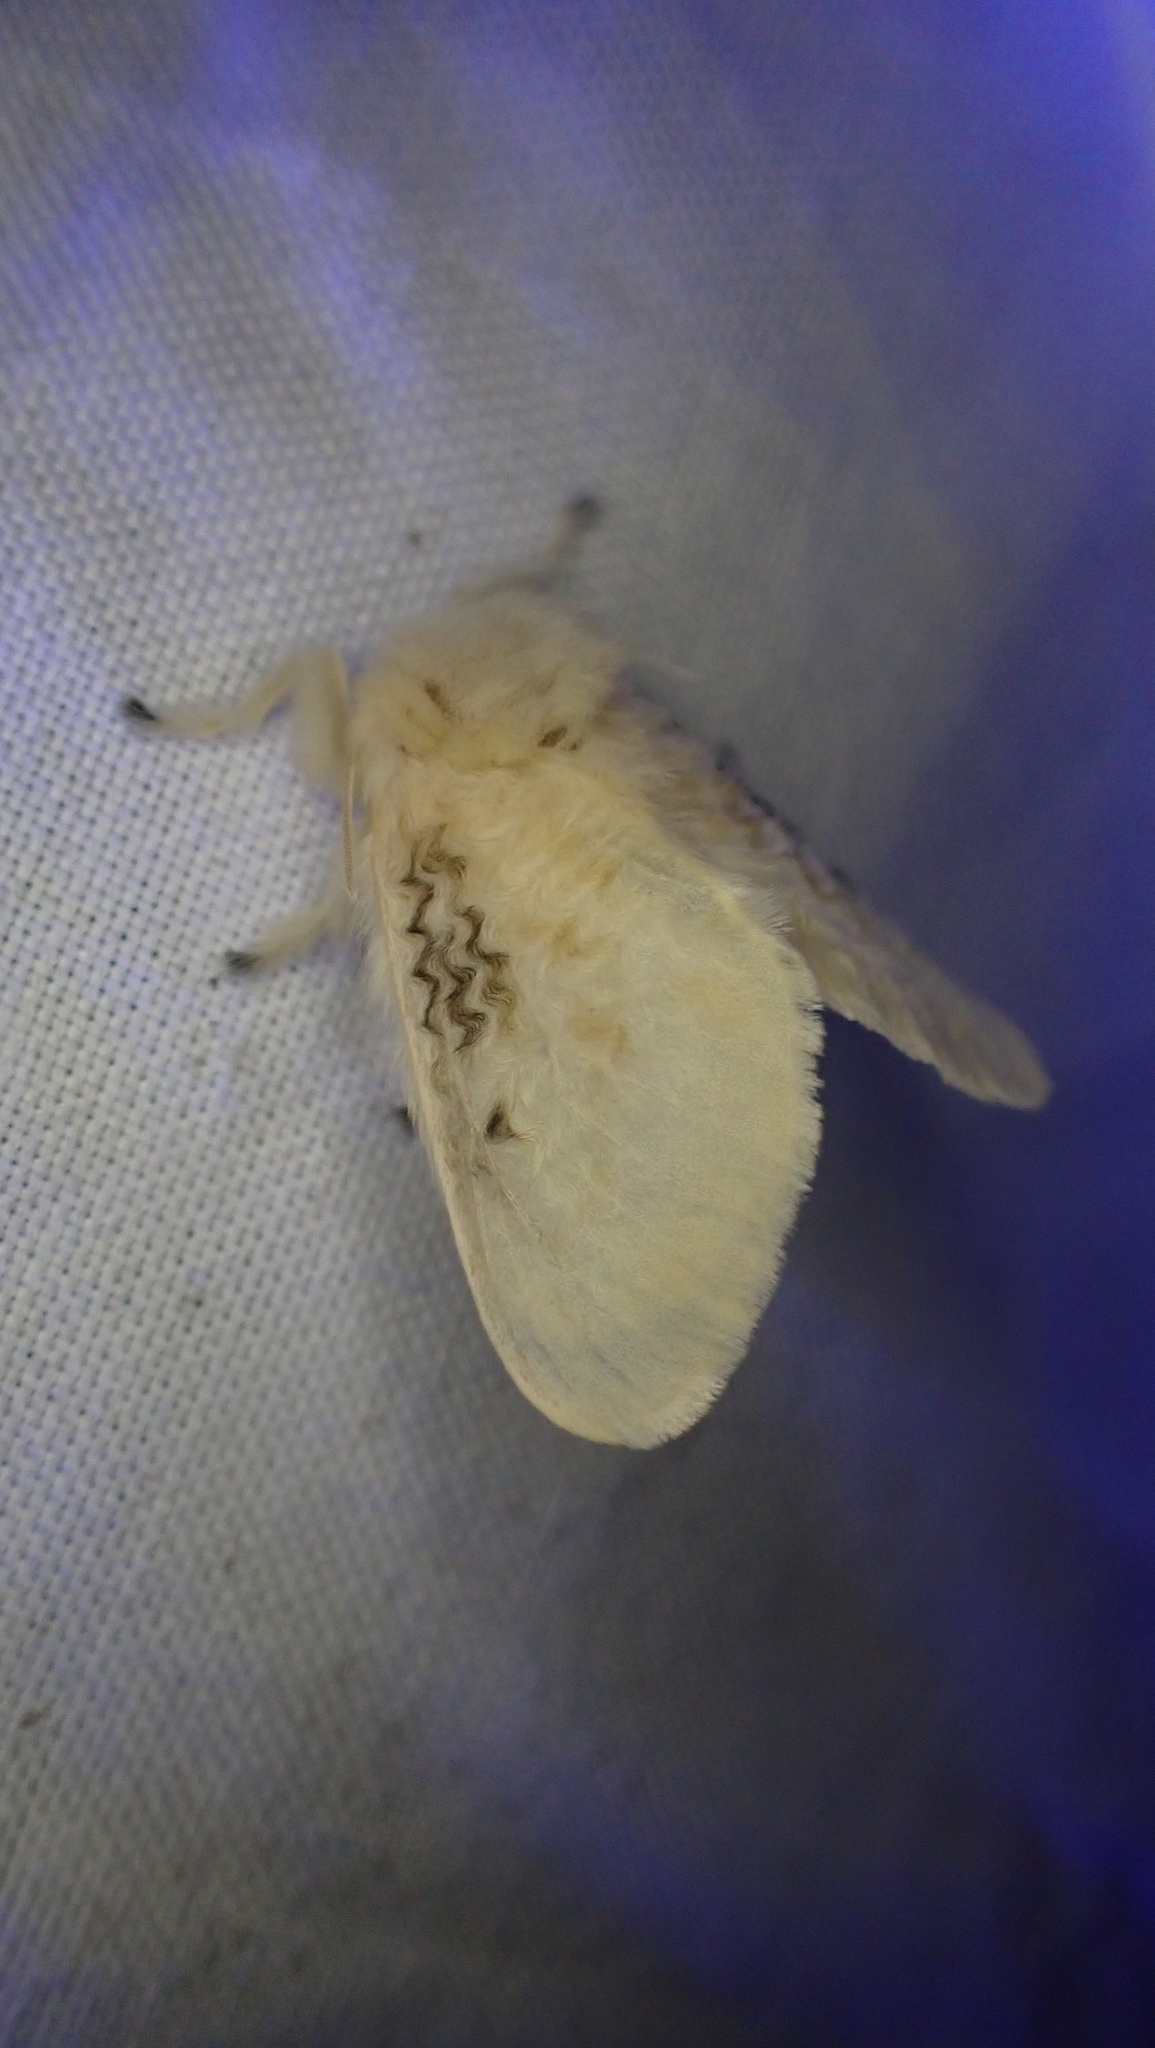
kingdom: Animalia
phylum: Arthropoda
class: Insecta
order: Lepidoptera
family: Megalopygidae
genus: Megalopyge
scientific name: Megalopyge crispata
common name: Black-waved flannel moth
